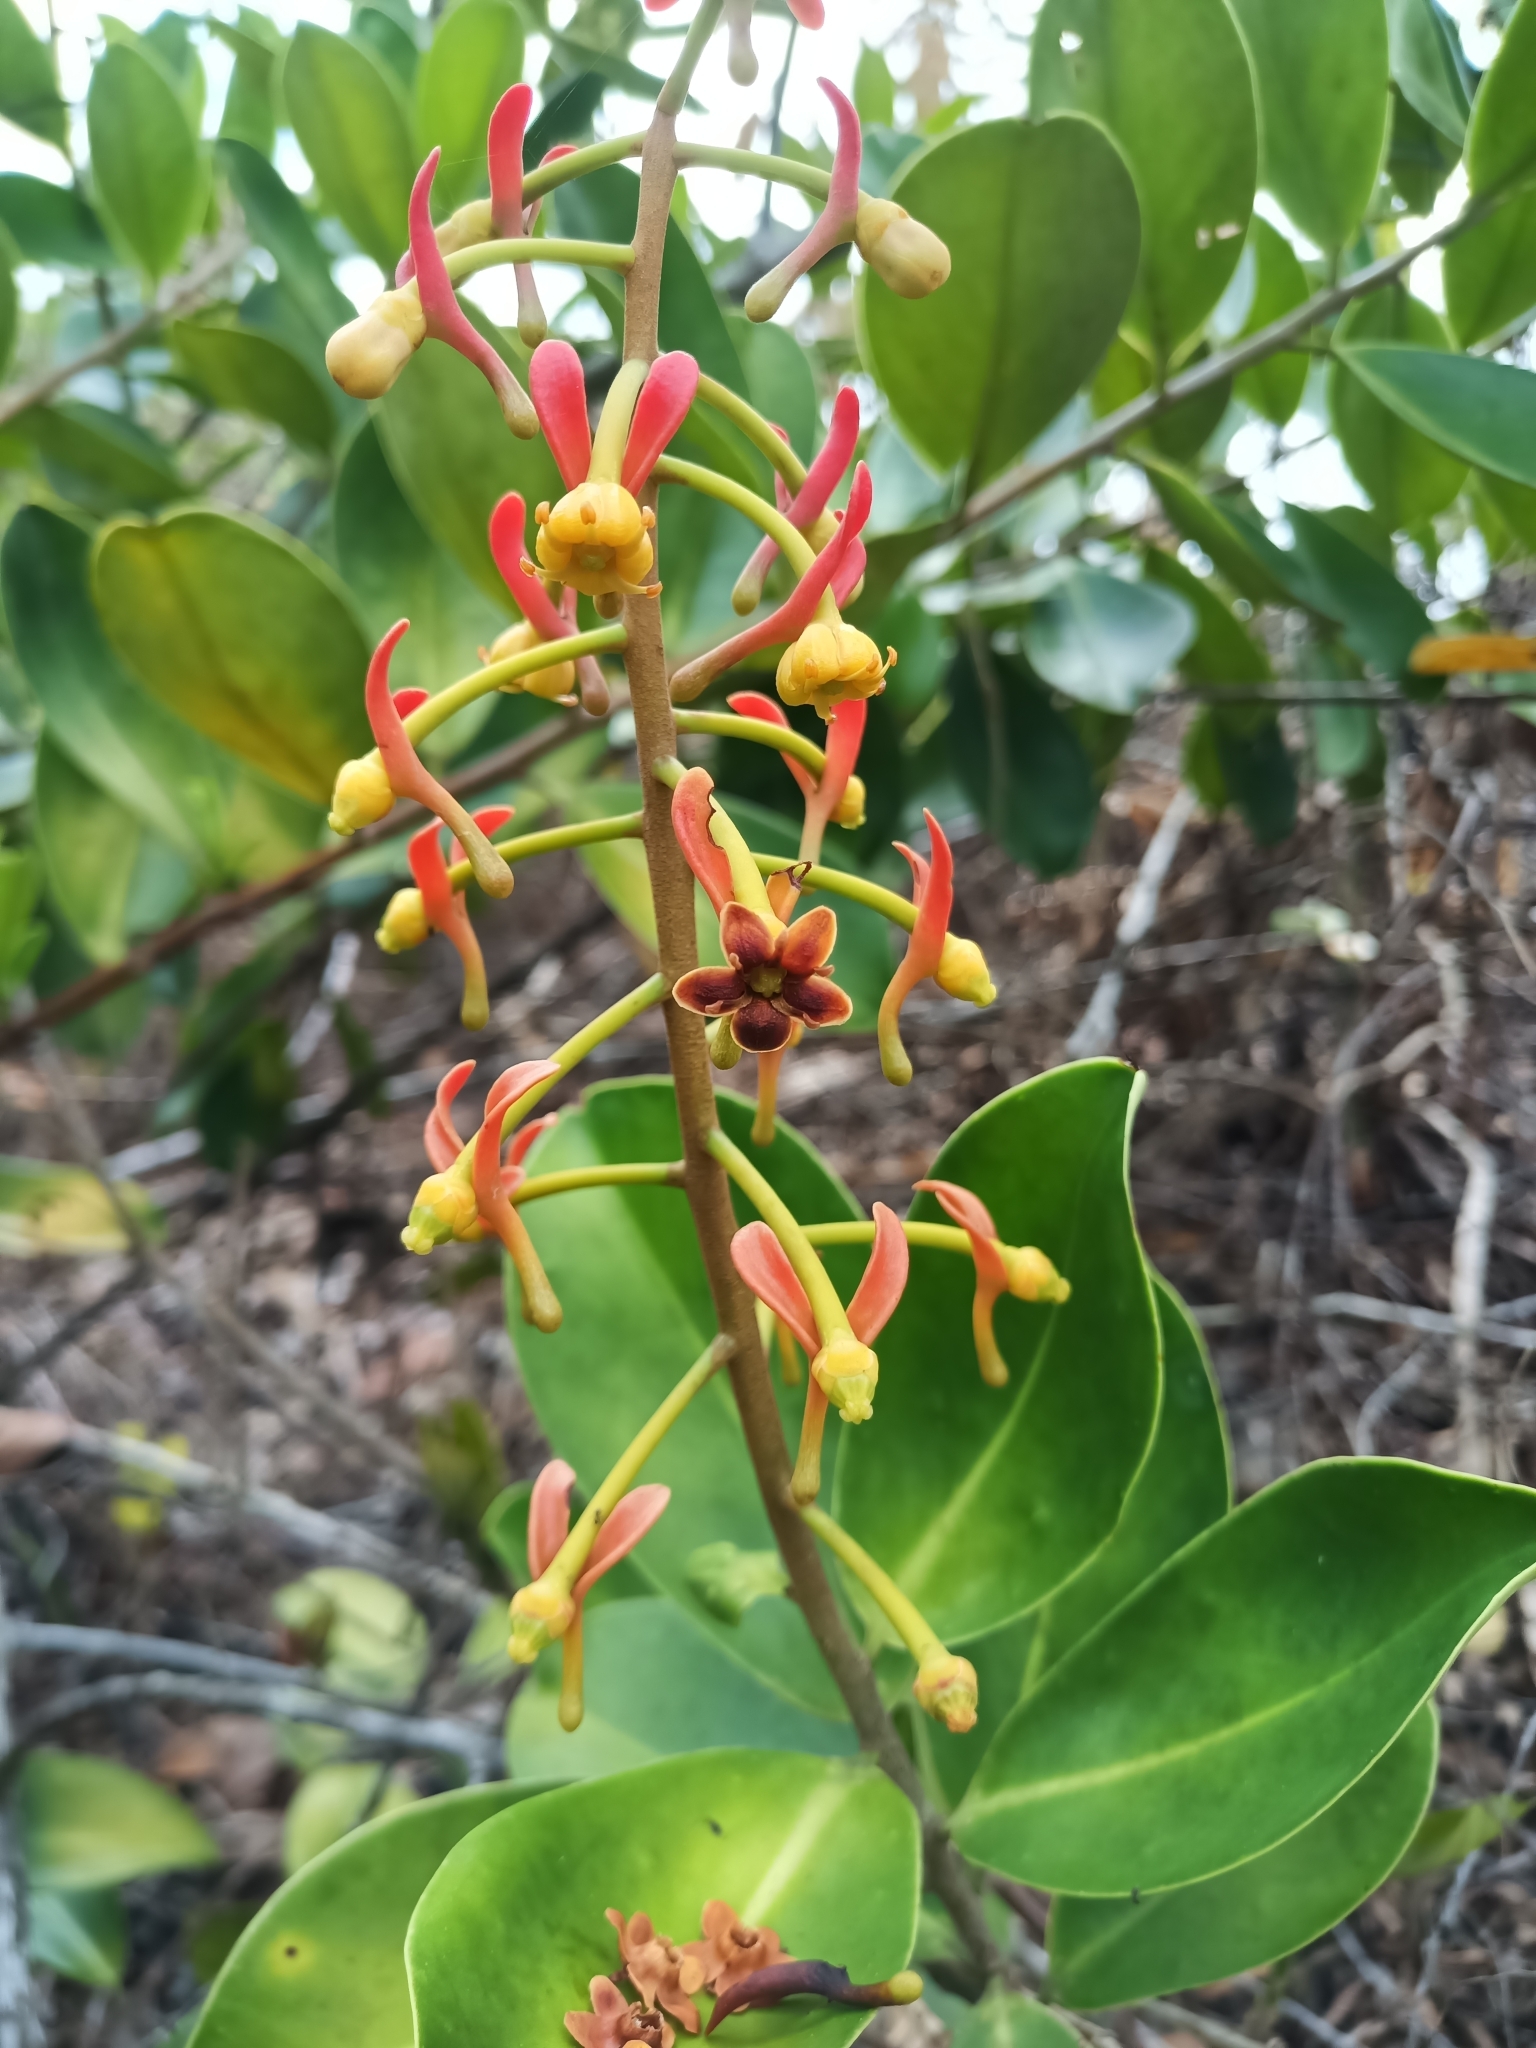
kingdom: Plantae
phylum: Tracheophyta
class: Magnoliopsida
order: Ericales
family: Marcgraviaceae
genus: Souroubea
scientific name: Souroubea guianensis
